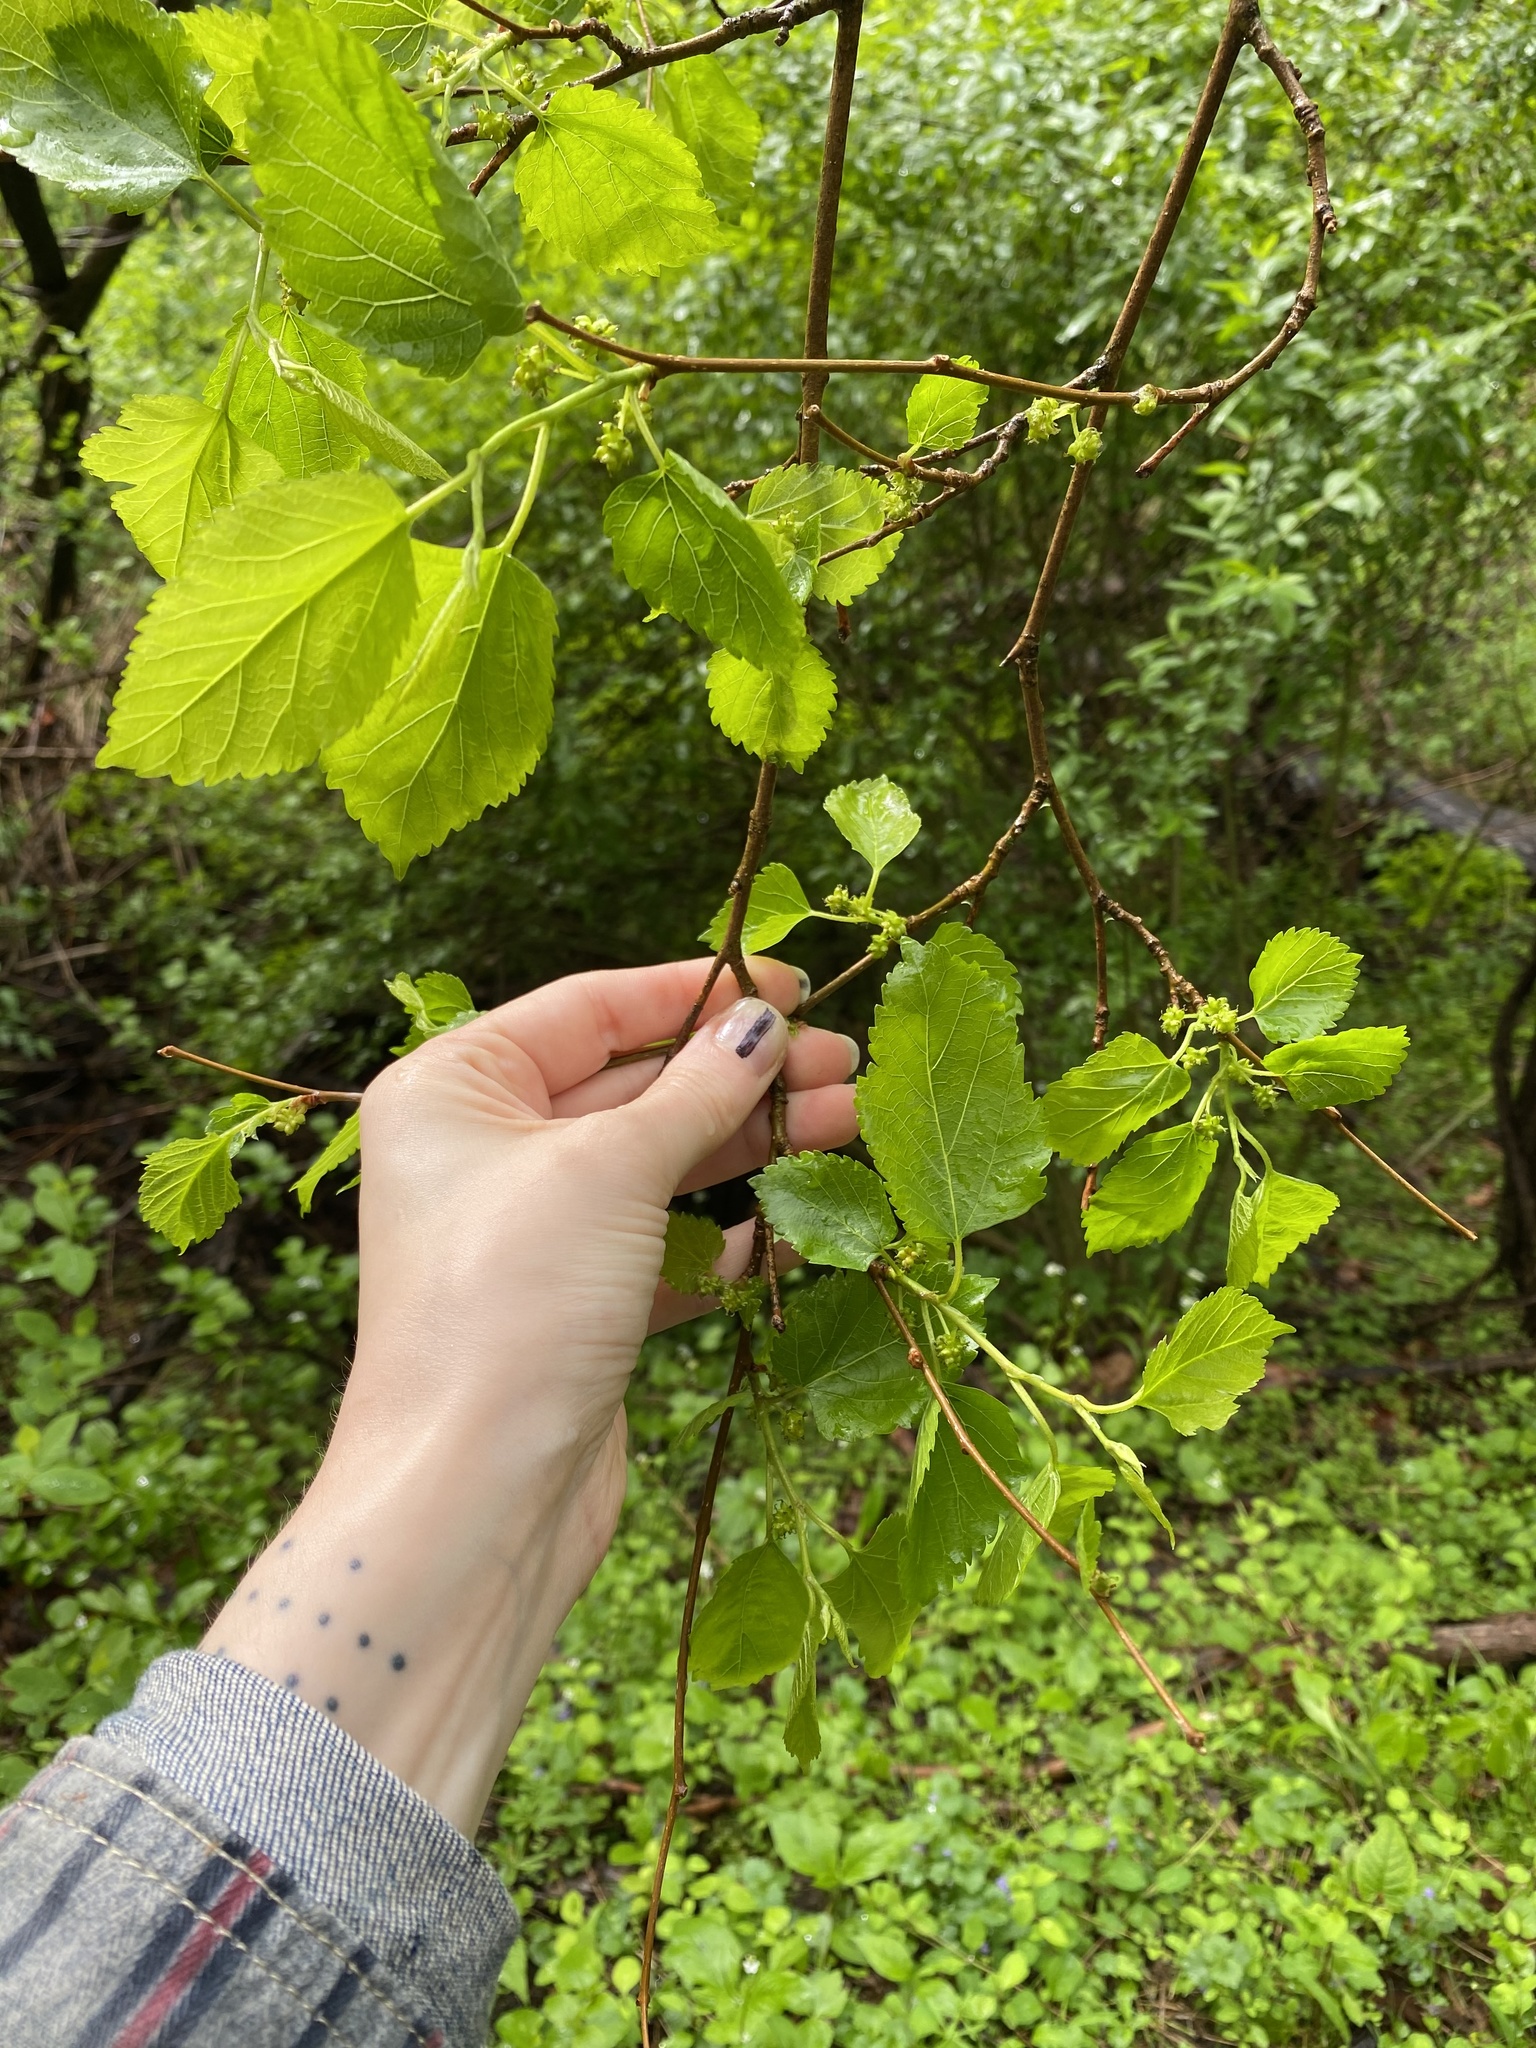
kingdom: Plantae
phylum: Tracheophyta
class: Magnoliopsida
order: Rosales
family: Moraceae
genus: Morus
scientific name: Morus alba
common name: White mulberry
